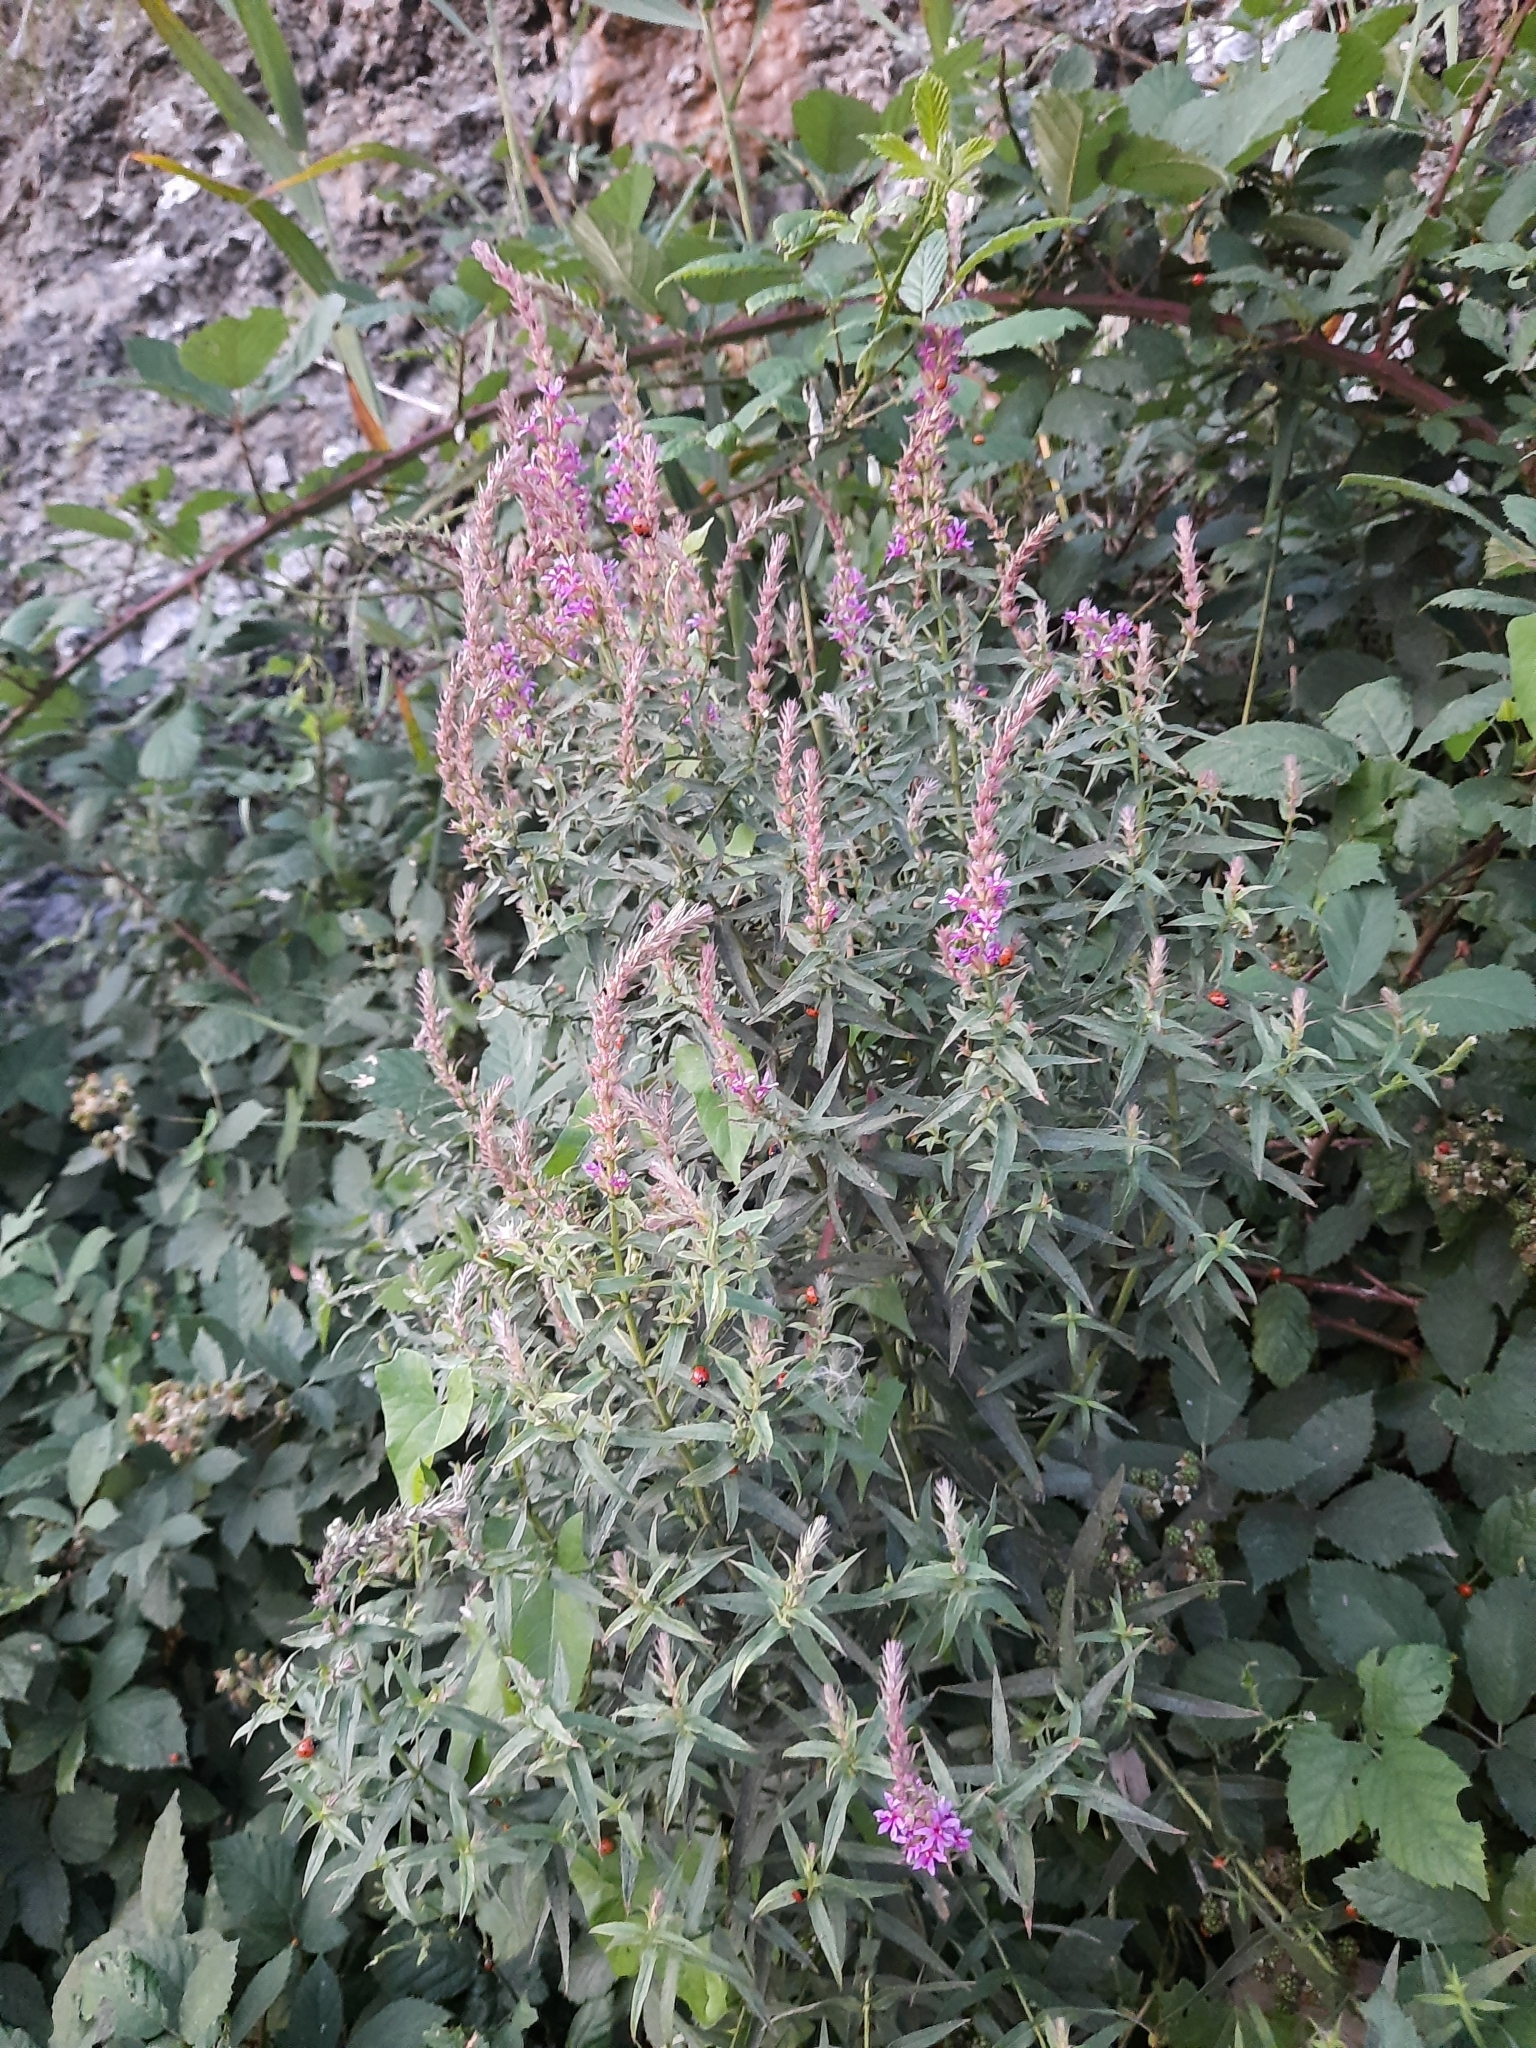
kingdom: Plantae
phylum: Tracheophyta
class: Magnoliopsida
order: Myrtales
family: Lythraceae
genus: Lythrum
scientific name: Lythrum salicaria
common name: Purple loosestrife
